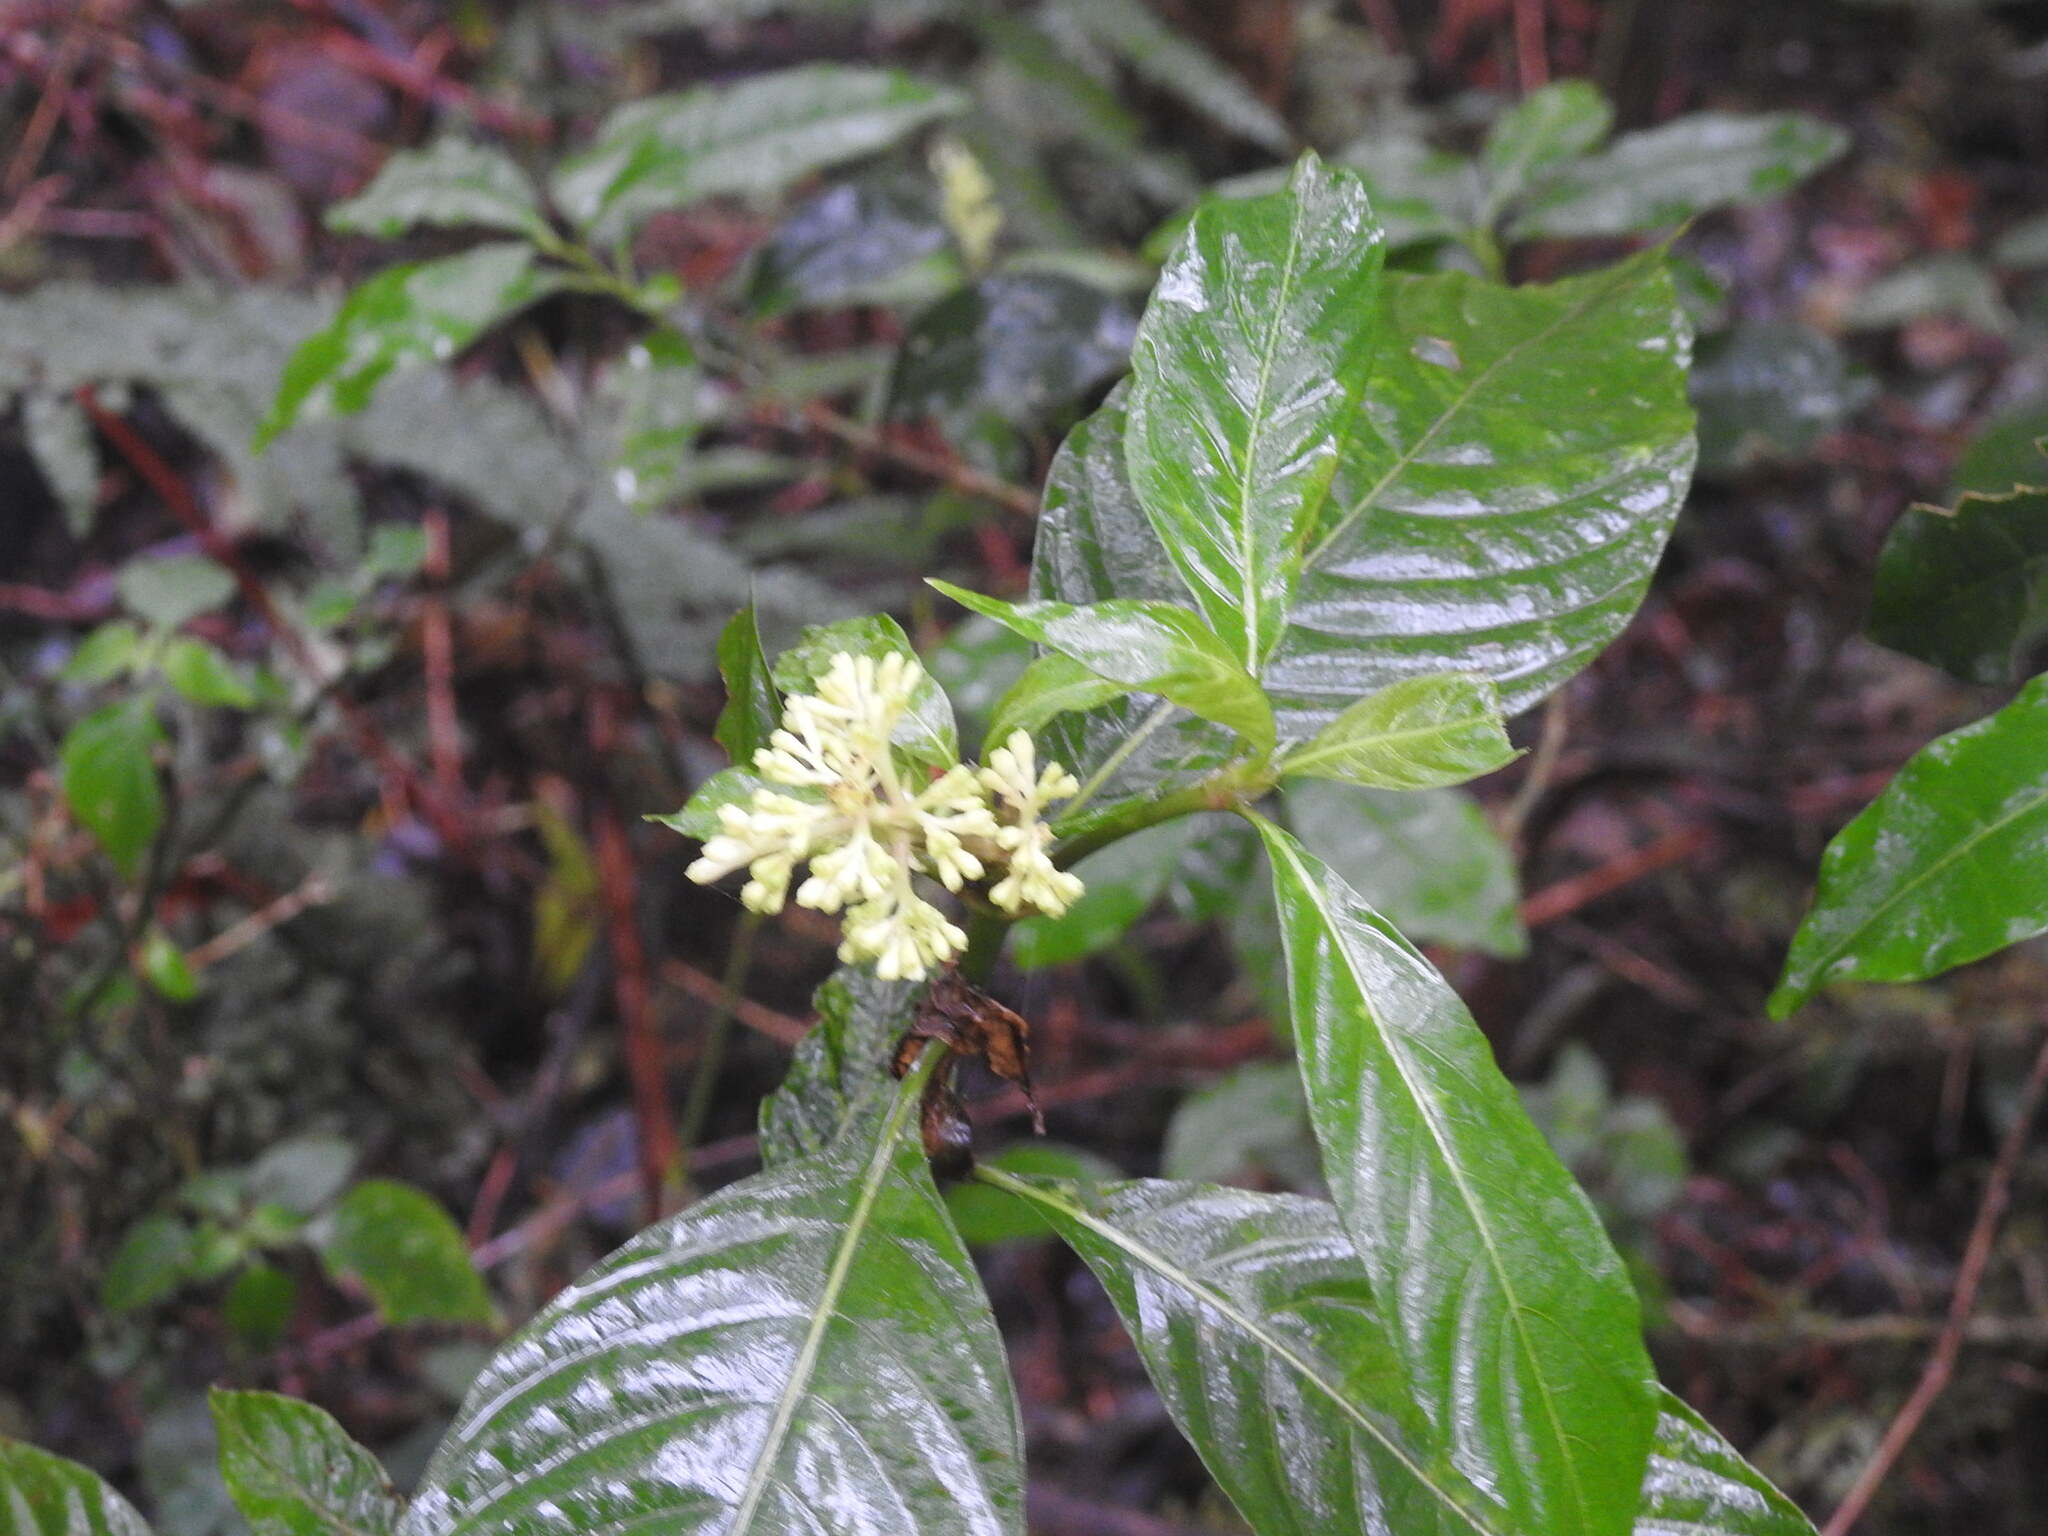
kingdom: Plantae
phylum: Tracheophyta
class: Magnoliopsida
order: Gentianales
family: Rubiaceae
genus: Psychotria
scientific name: Psychotria carthagenensis
